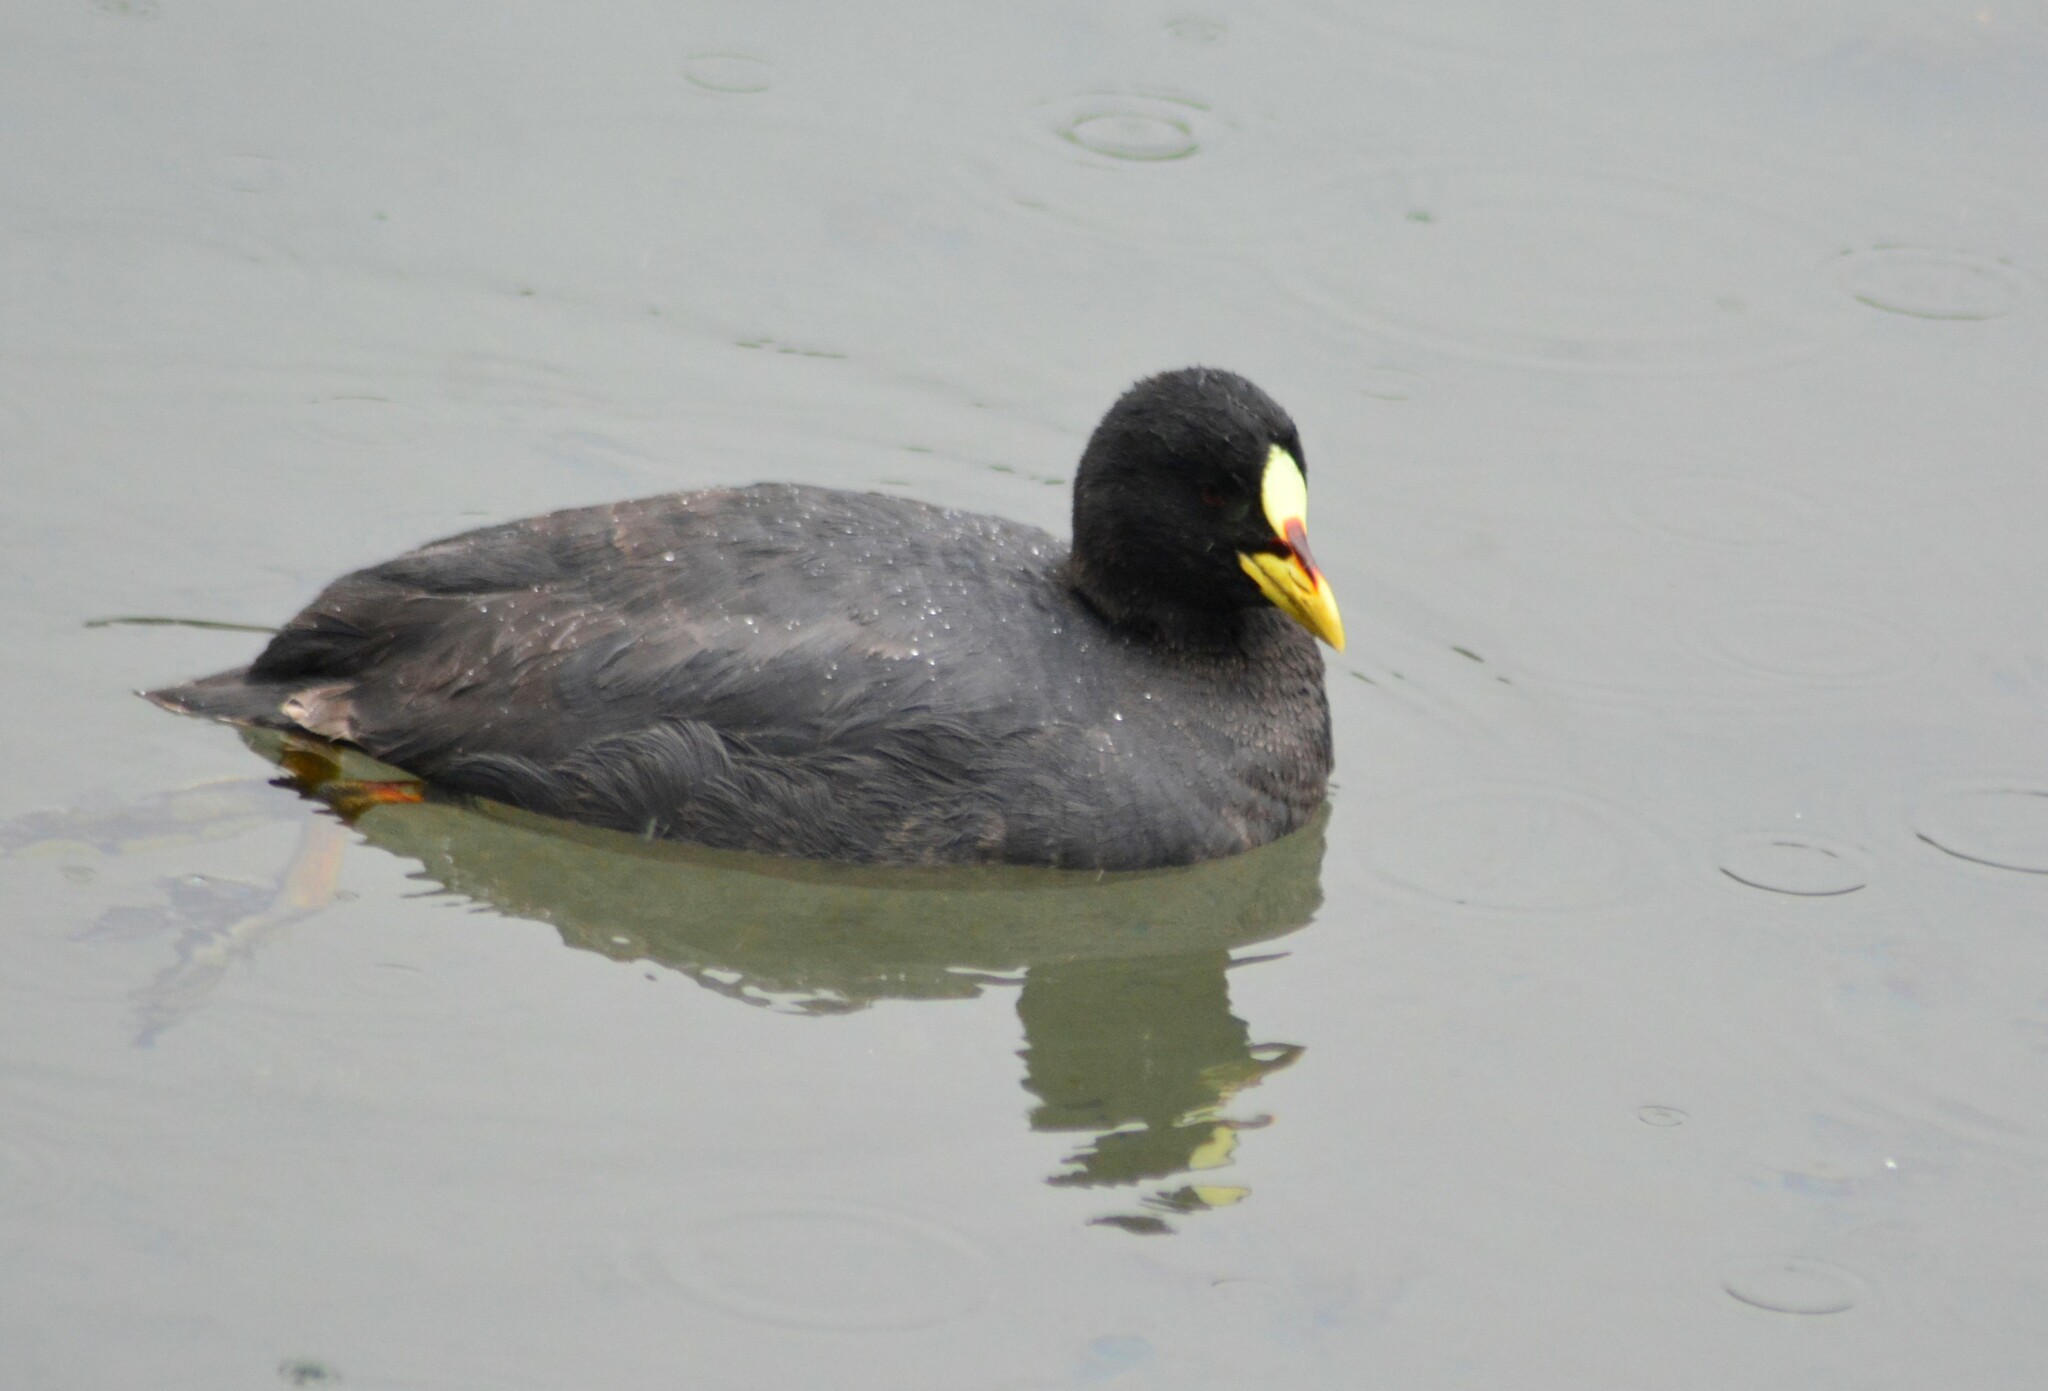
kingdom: Animalia
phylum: Chordata
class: Aves
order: Gruiformes
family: Rallidae
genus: Fulica
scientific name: Fulica armillata
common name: Red-gartered coot
